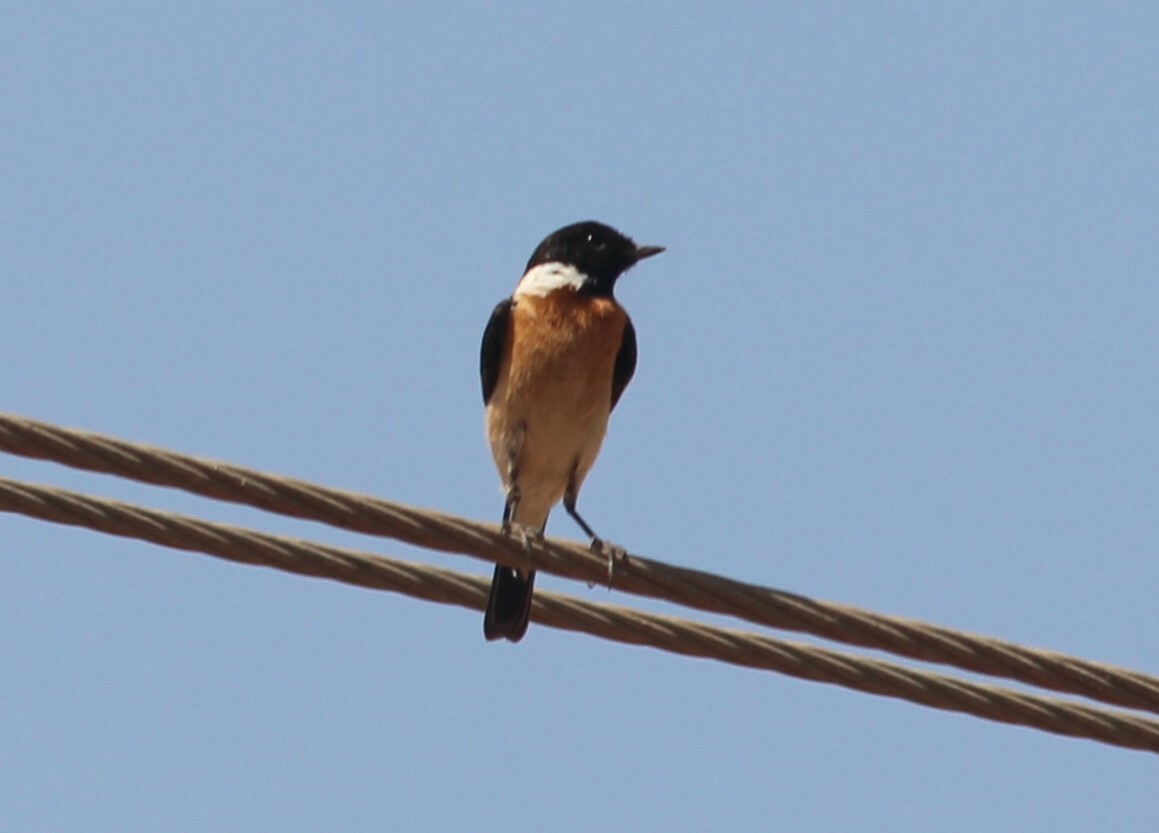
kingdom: Animalia
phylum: Chordata
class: Aves
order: Passeriformes
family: Muscicapidae
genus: Saxicola
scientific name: Saxicola maurus
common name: Siberian stonechat
